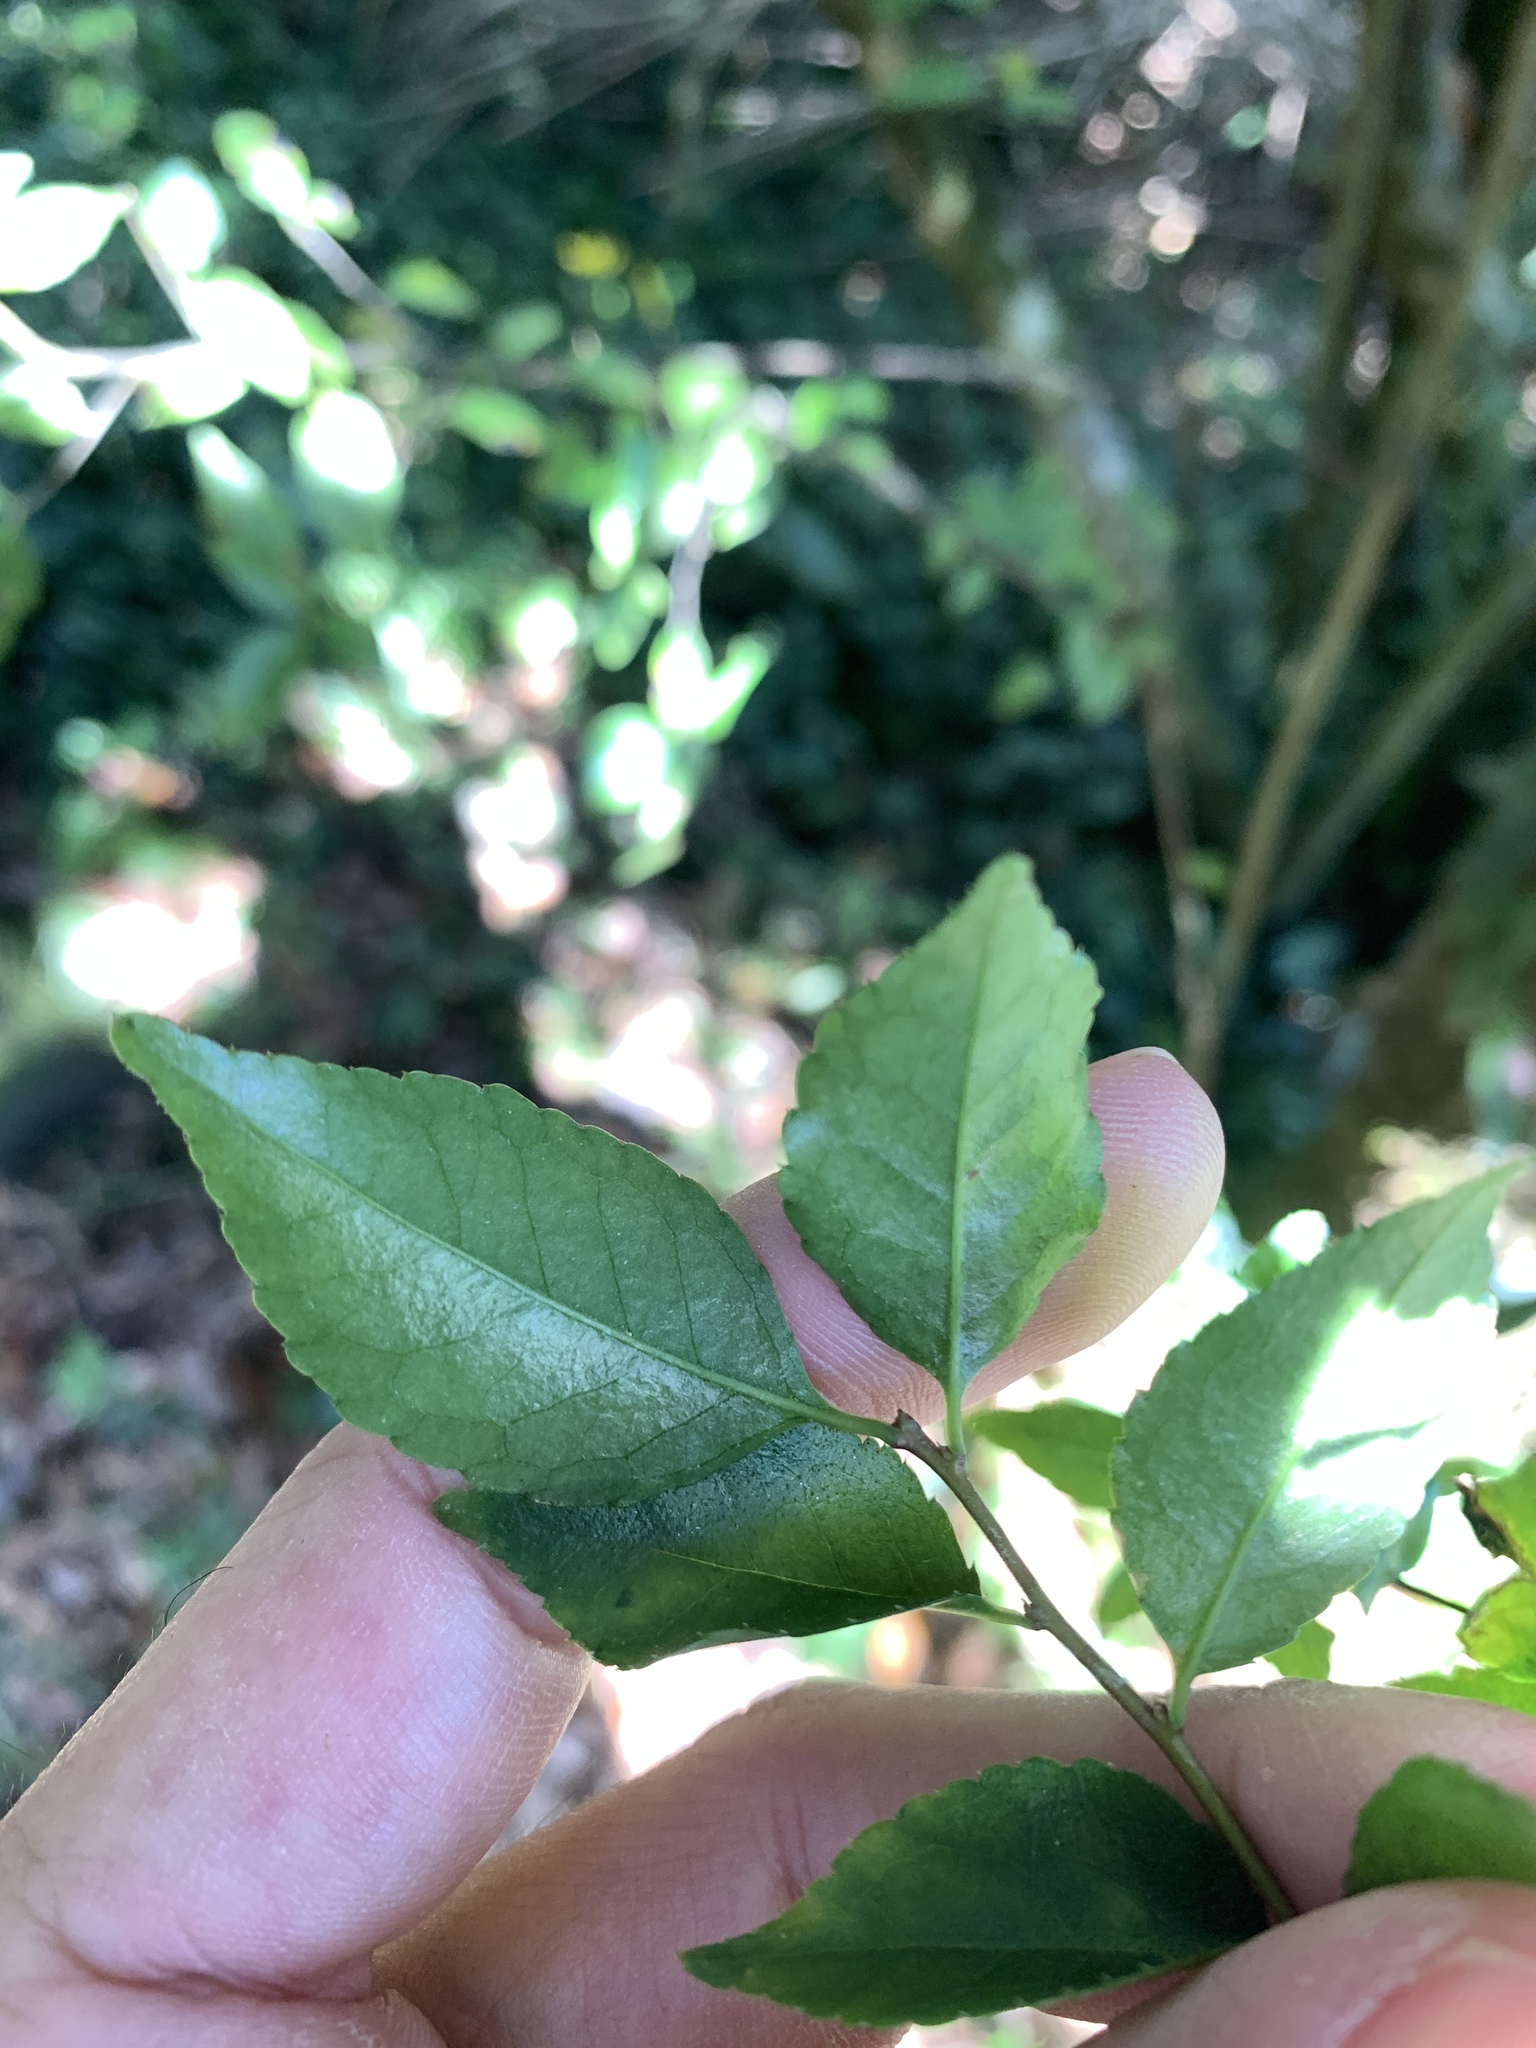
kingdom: Plantae
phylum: Tracheophyta
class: Magnoliopsida
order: Aquifoliales
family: Aquifoliaceae
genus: Ilex
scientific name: Ilex asprella
